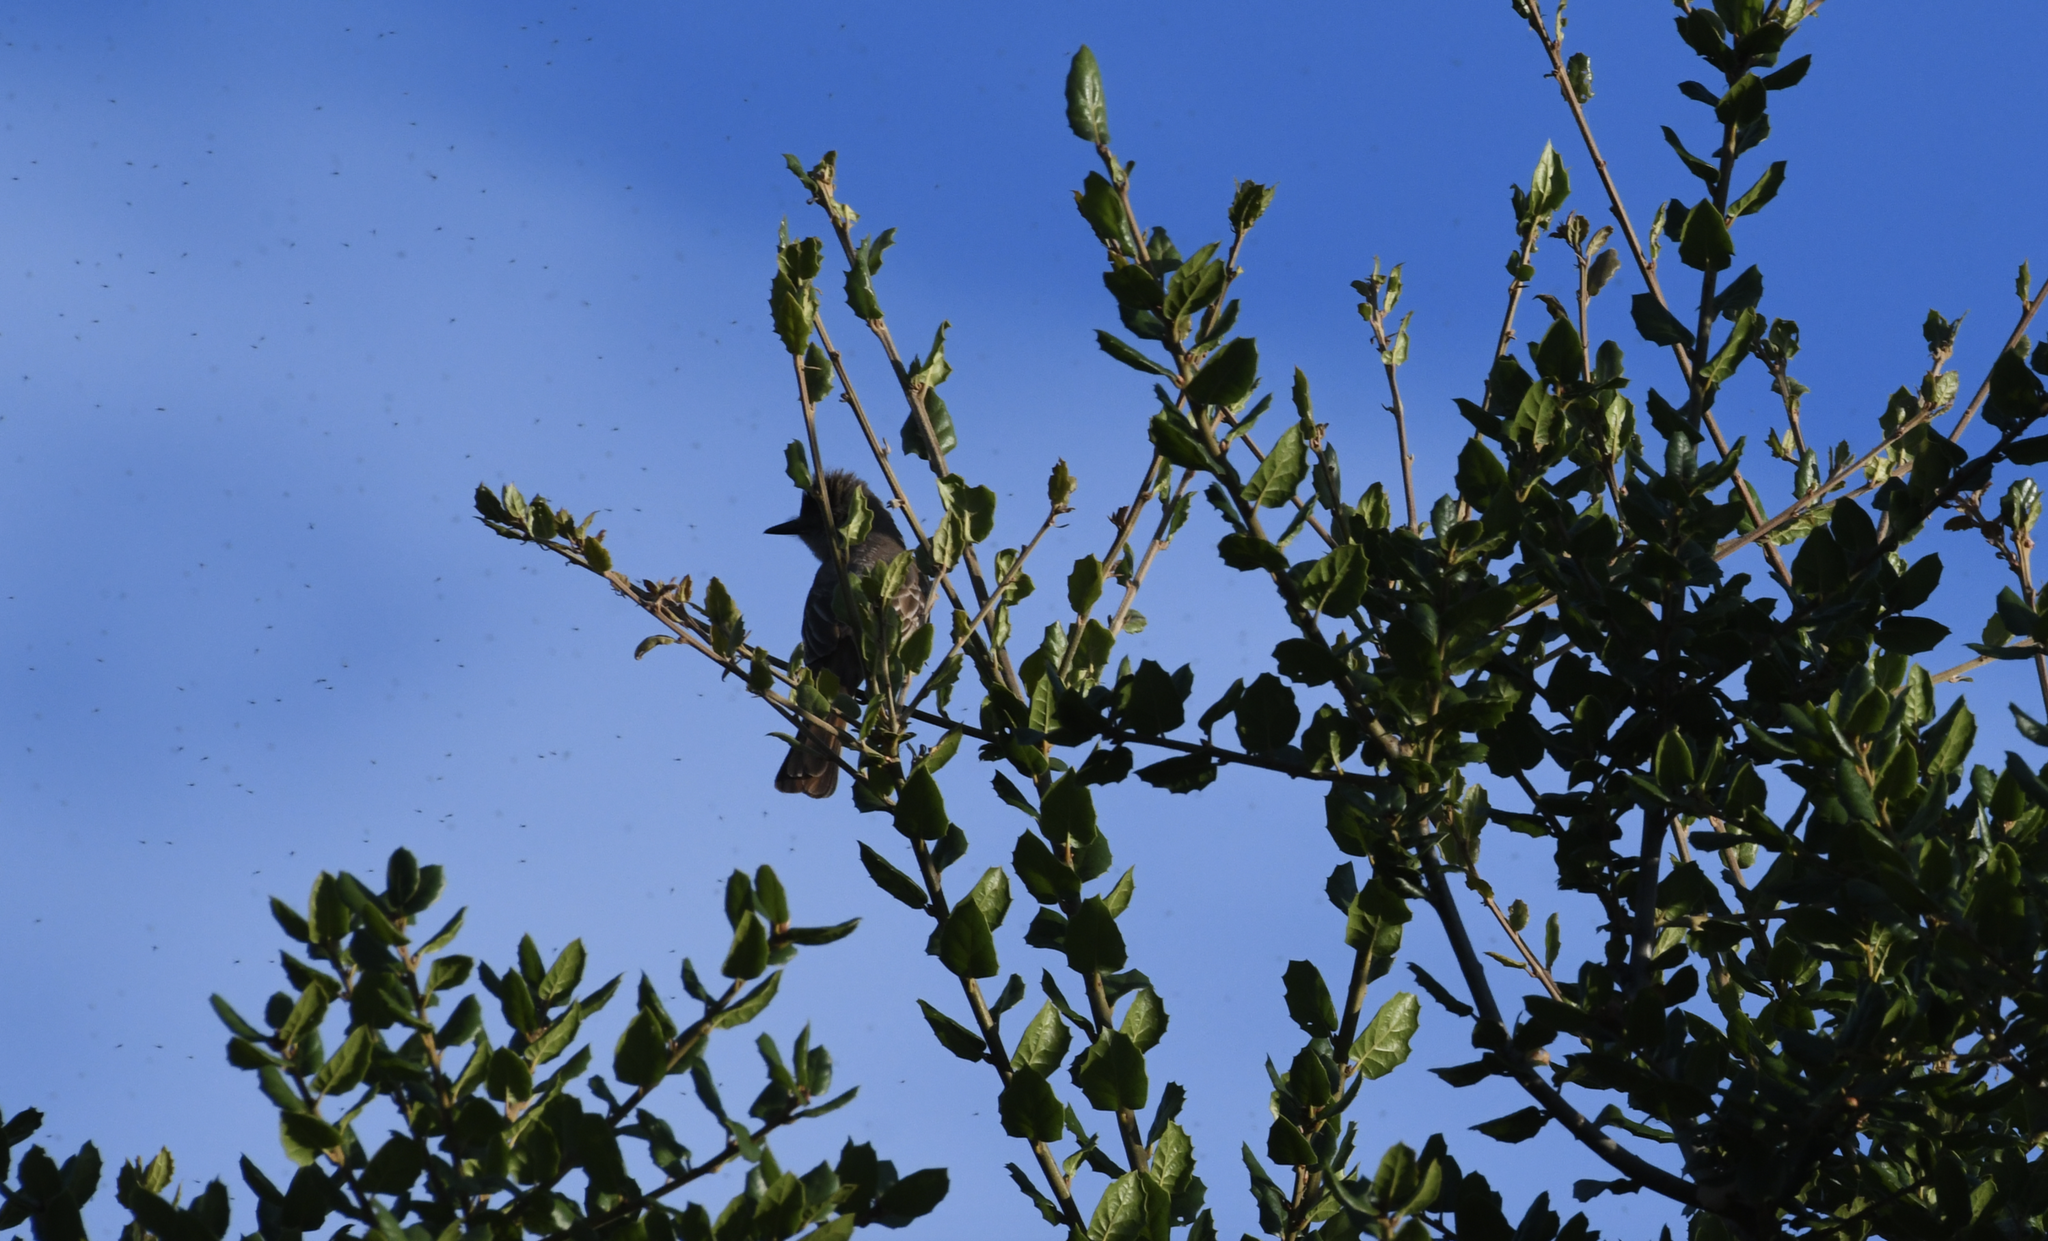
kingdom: Animalia
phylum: Chordata
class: Aves
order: Passeriformes
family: Tyrannidae
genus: Myiarchus
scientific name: Myiarchus cinerascens
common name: Ash-throated flycatcher
